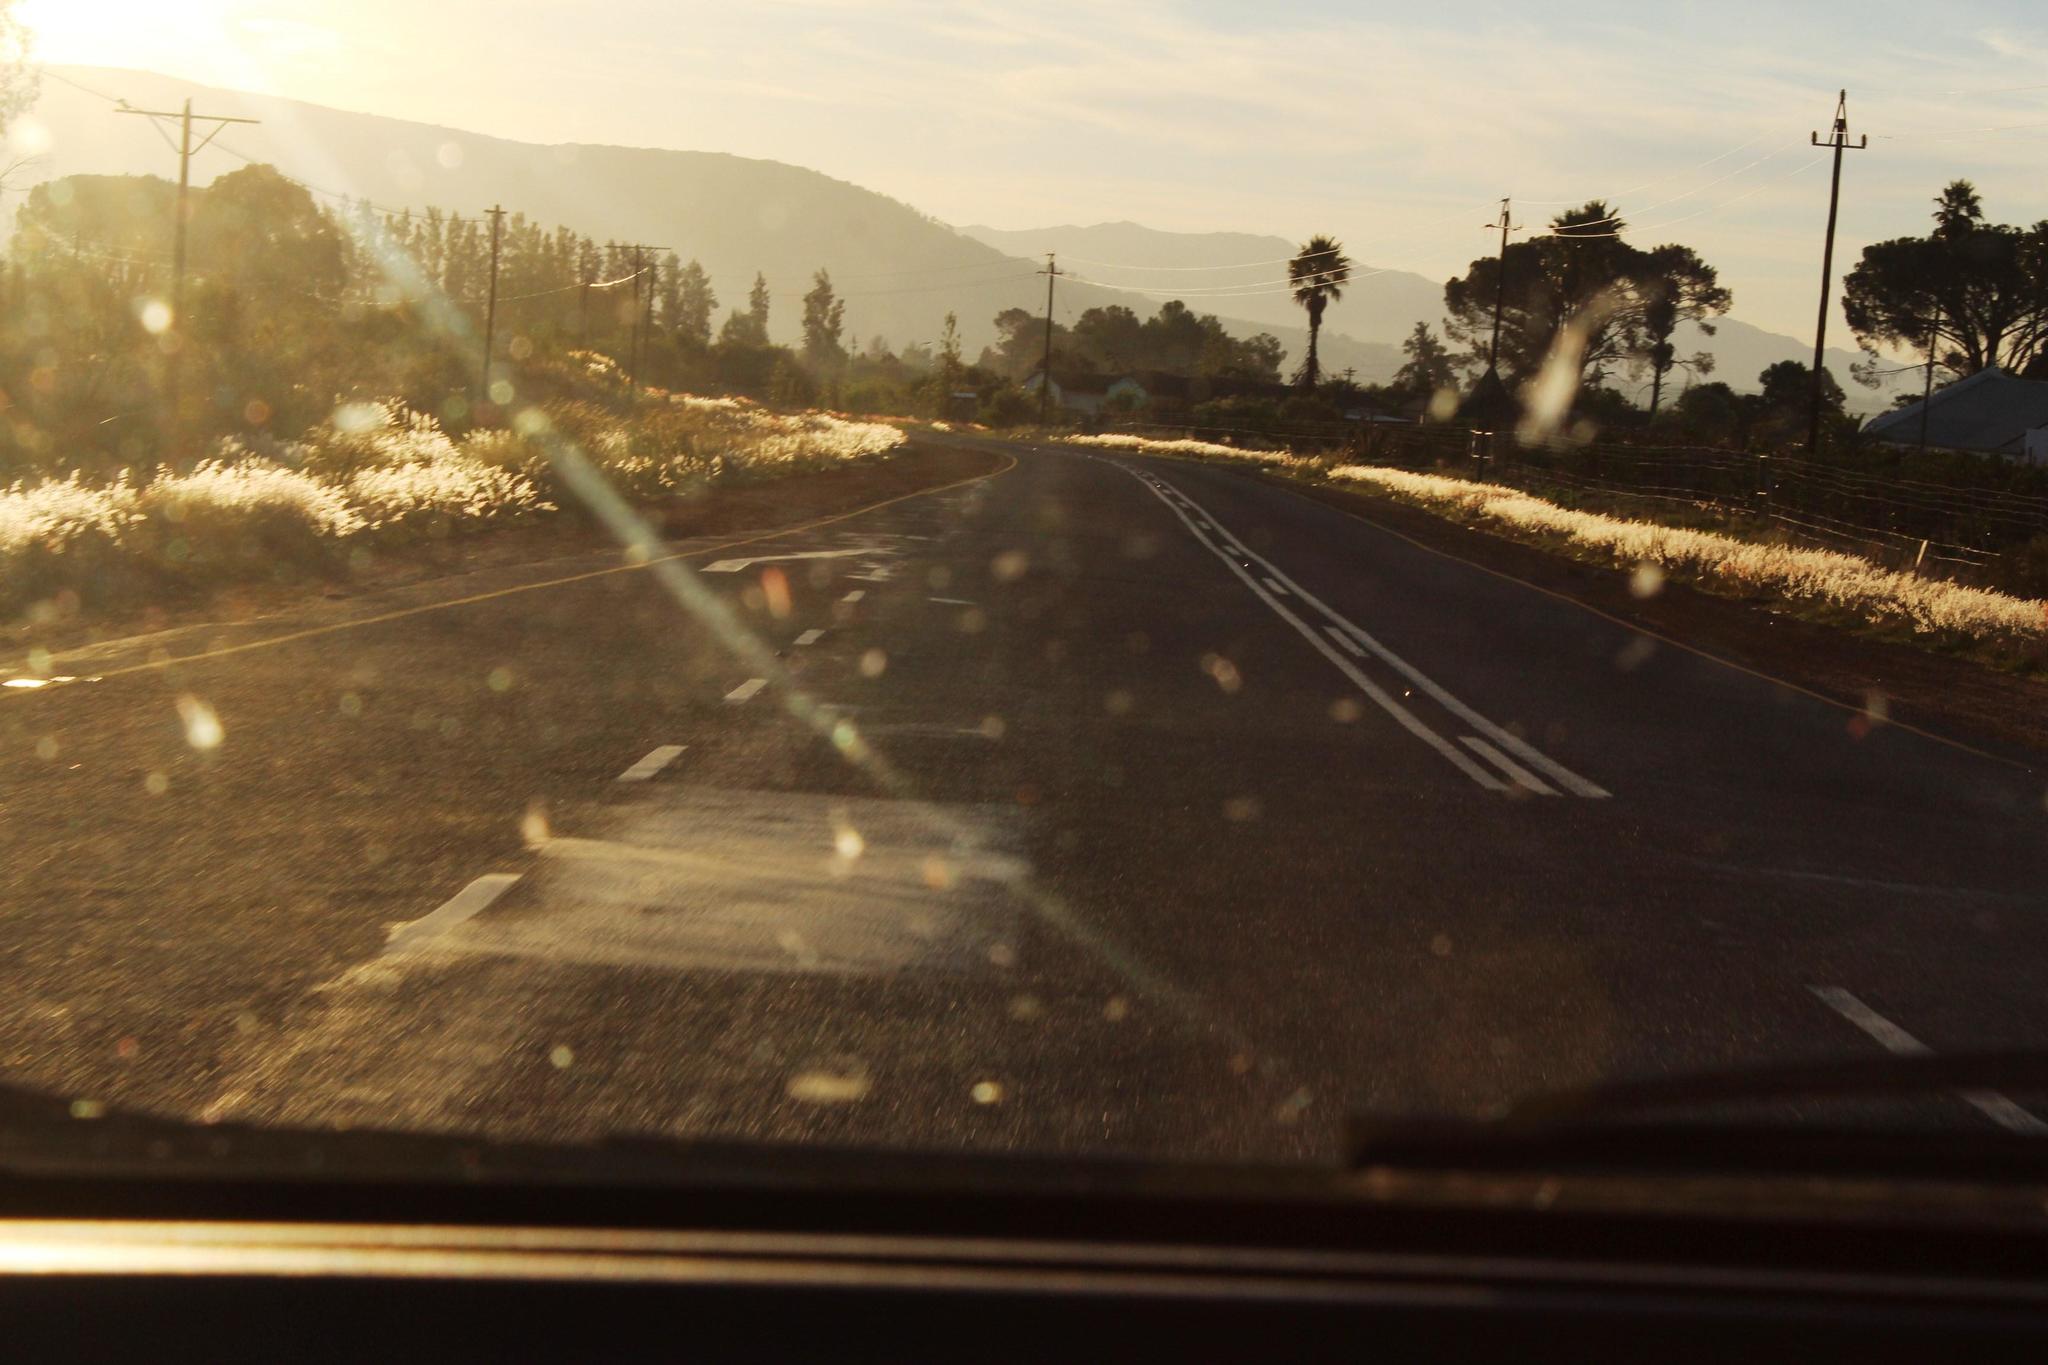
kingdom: Plantae
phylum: Tracheophyta
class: Liliopsida
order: Poales
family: Poaceae
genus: Melinis
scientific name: Melinis repens
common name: Rose natal grass
